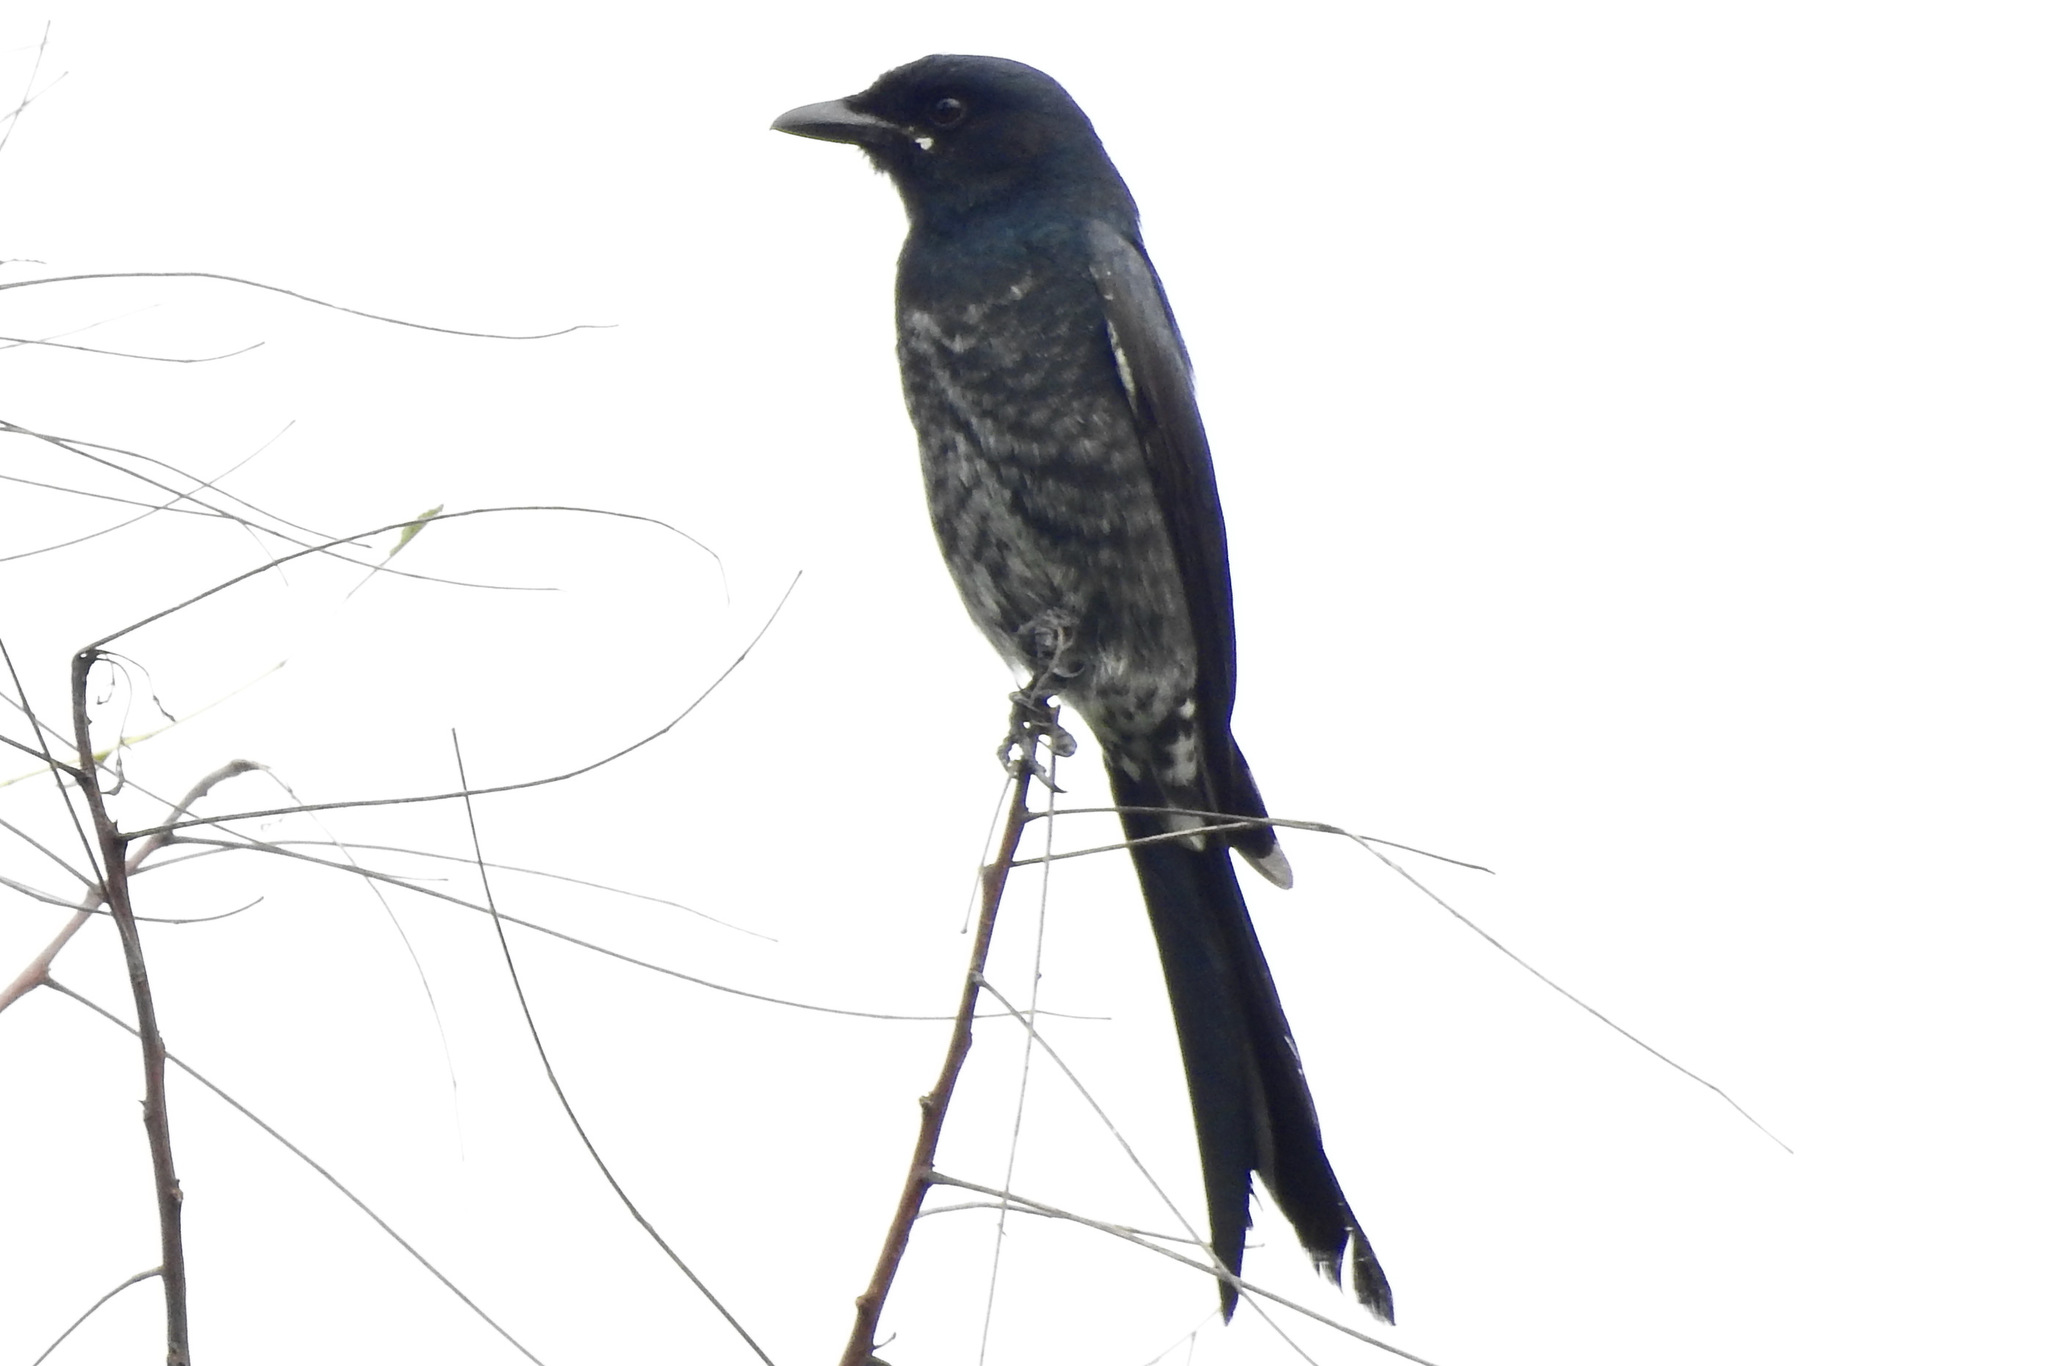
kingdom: Animalia
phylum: Chordata
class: Aves
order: Passeriformes
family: Dicruridae
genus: Dicrurus
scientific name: Dicrurus macrocercus
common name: Black drongo
